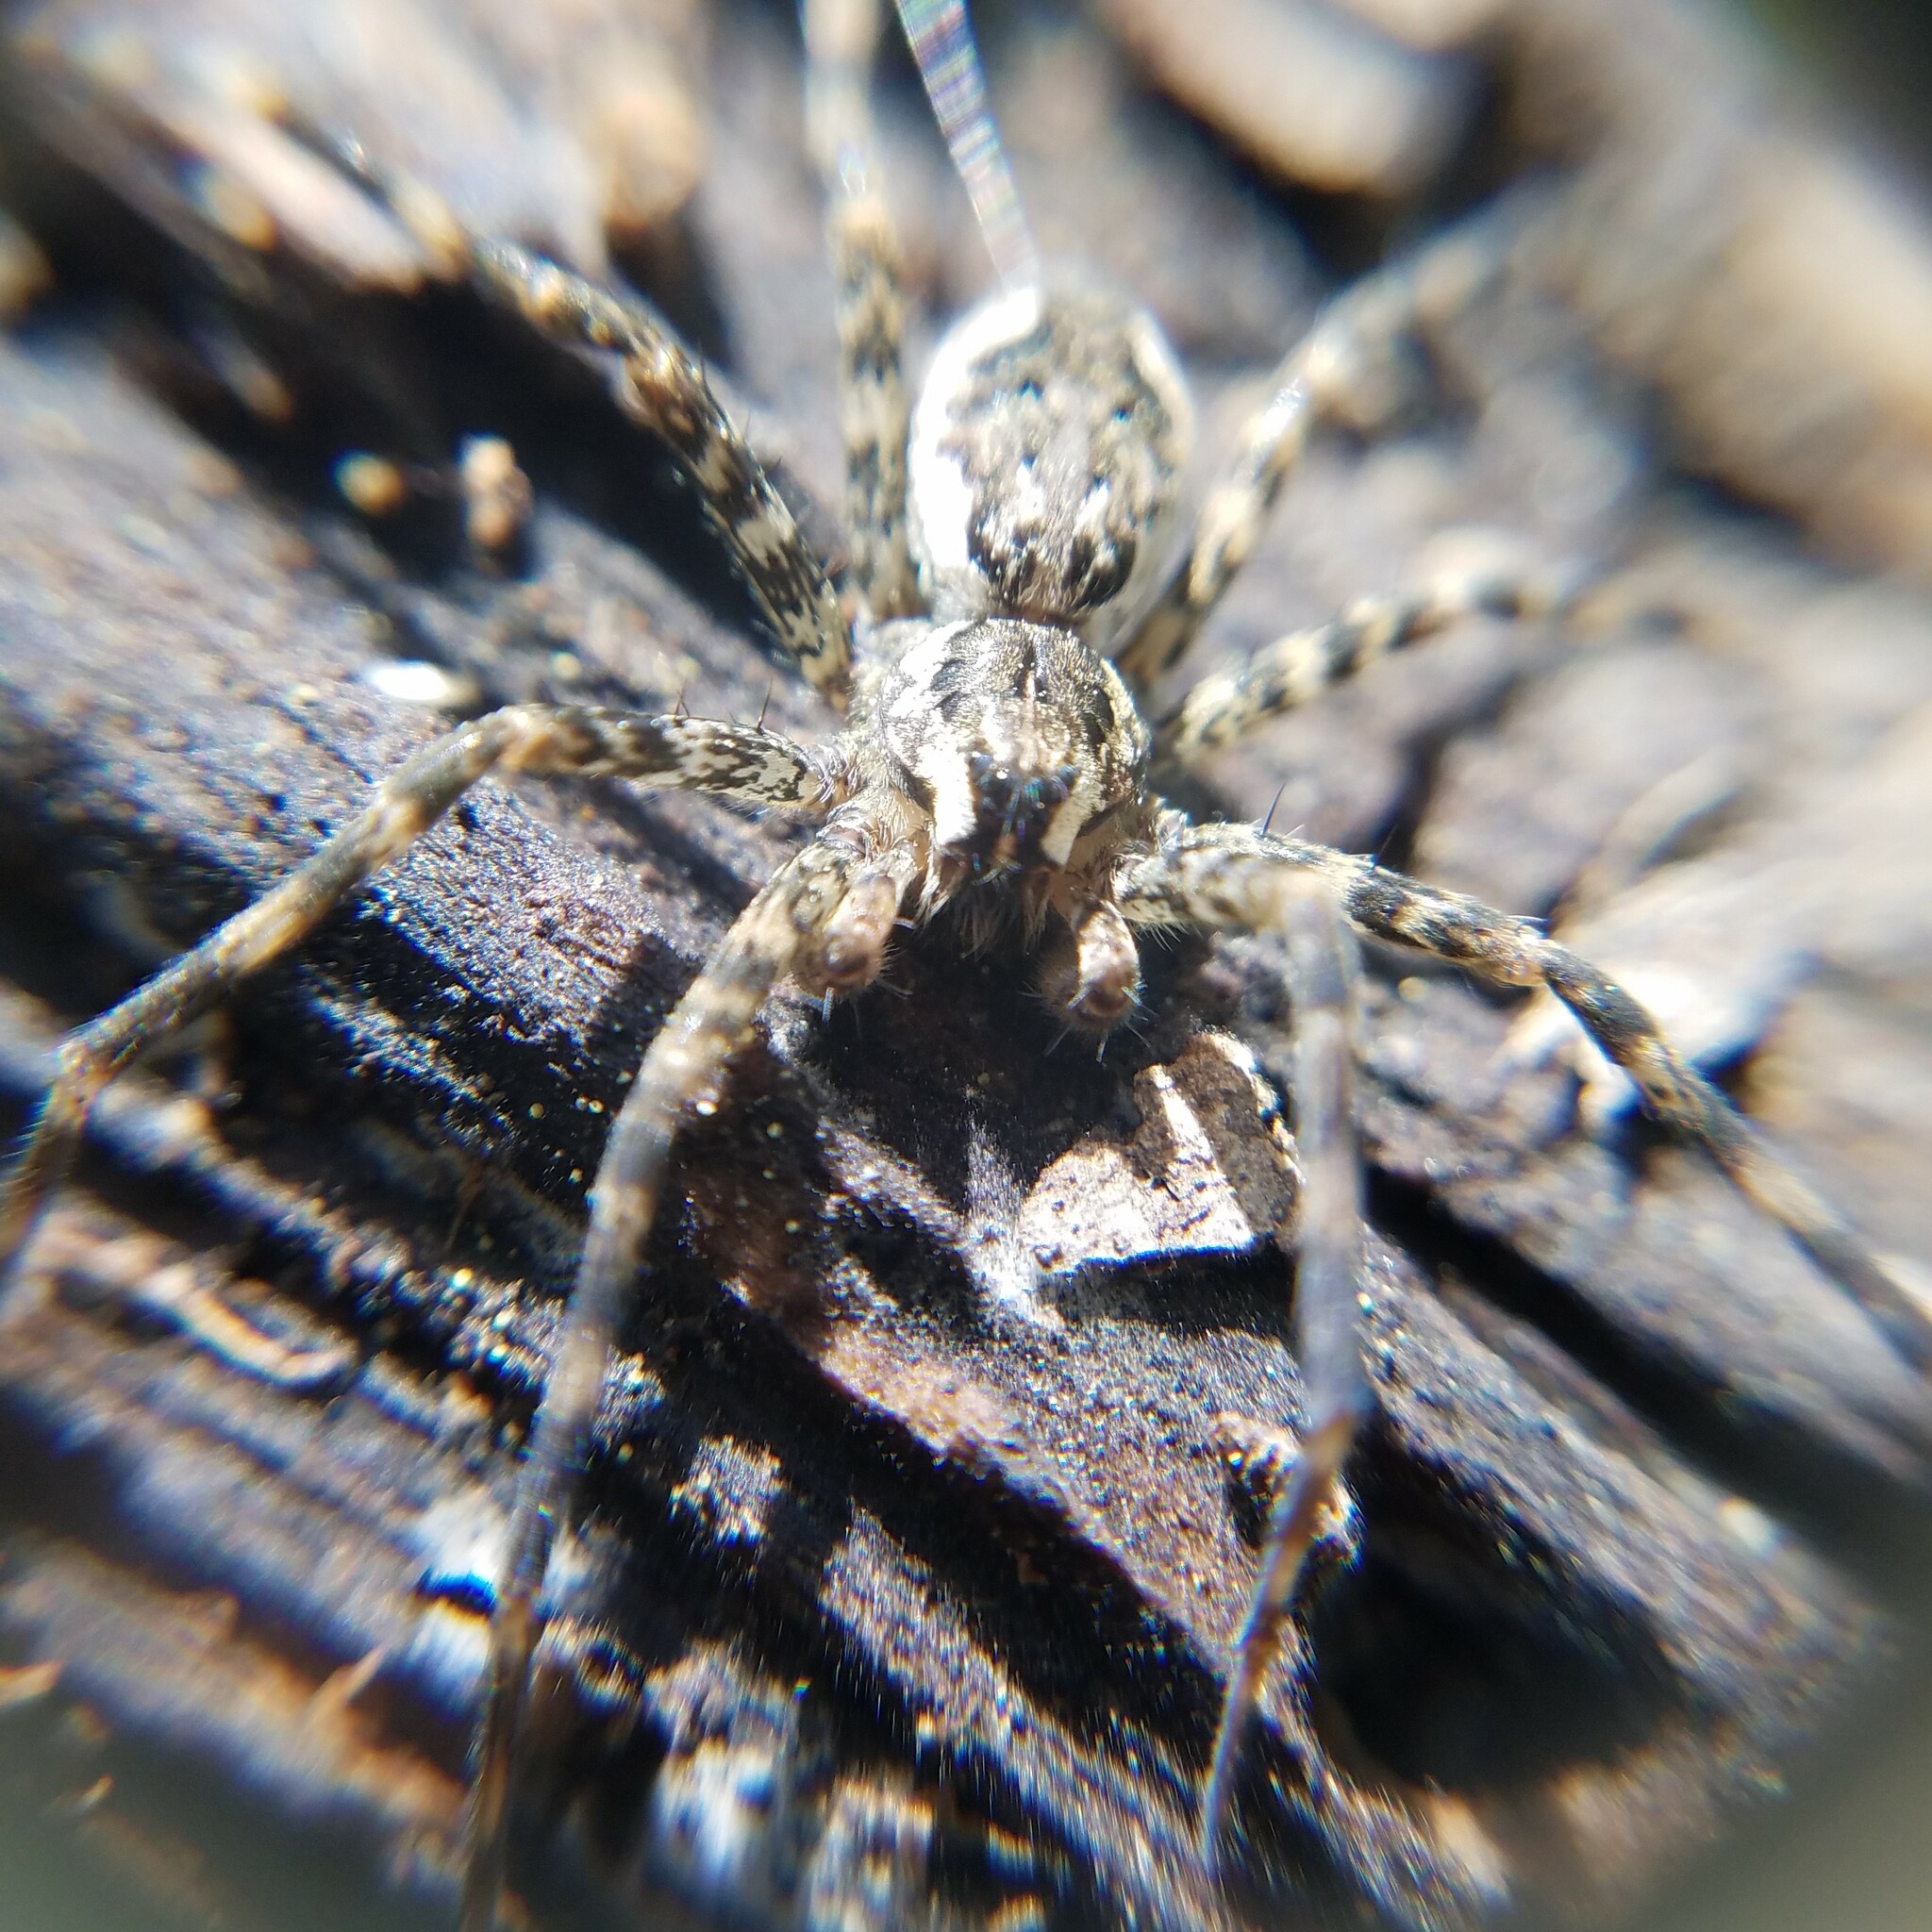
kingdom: Animalia
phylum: Arthropoda
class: Arachnida
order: Araneae
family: Pisauridae
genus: Dolomedes
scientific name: Dolomedes tenebrosus
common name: Dark fishing spider
